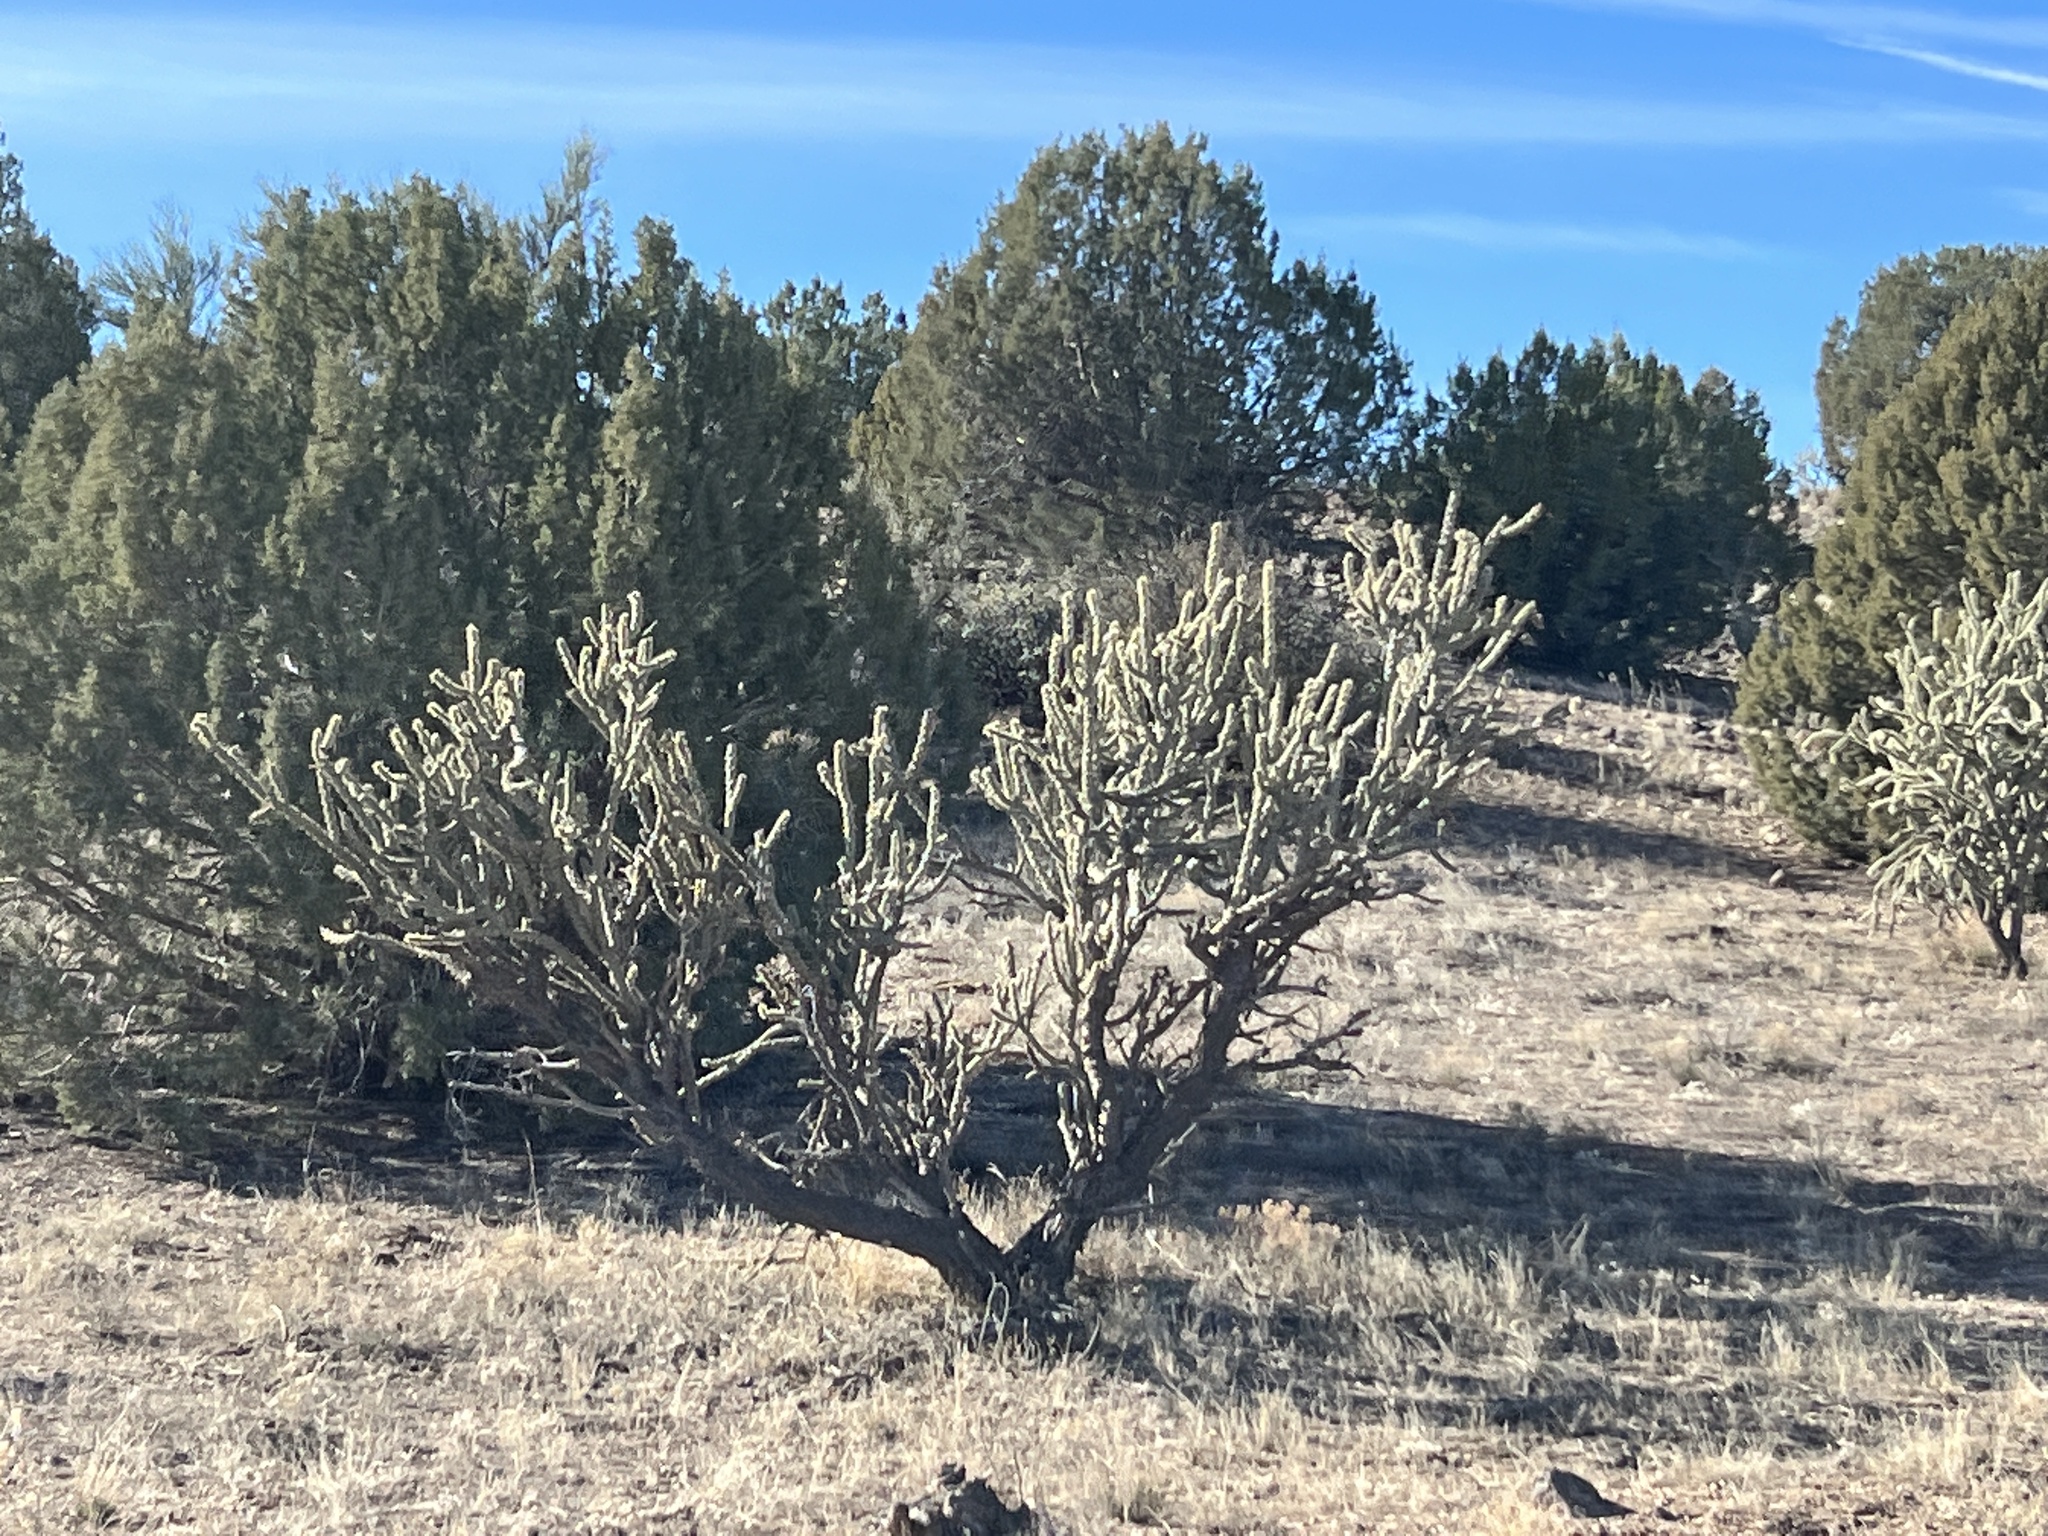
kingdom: Plantae
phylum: Tracheophyta
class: Magnoliopsida
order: Caryophyllales
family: Cactaceae
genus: Cylindropuntia
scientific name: Cylindropuntia acanthocarpa
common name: Buckhorn cholla
